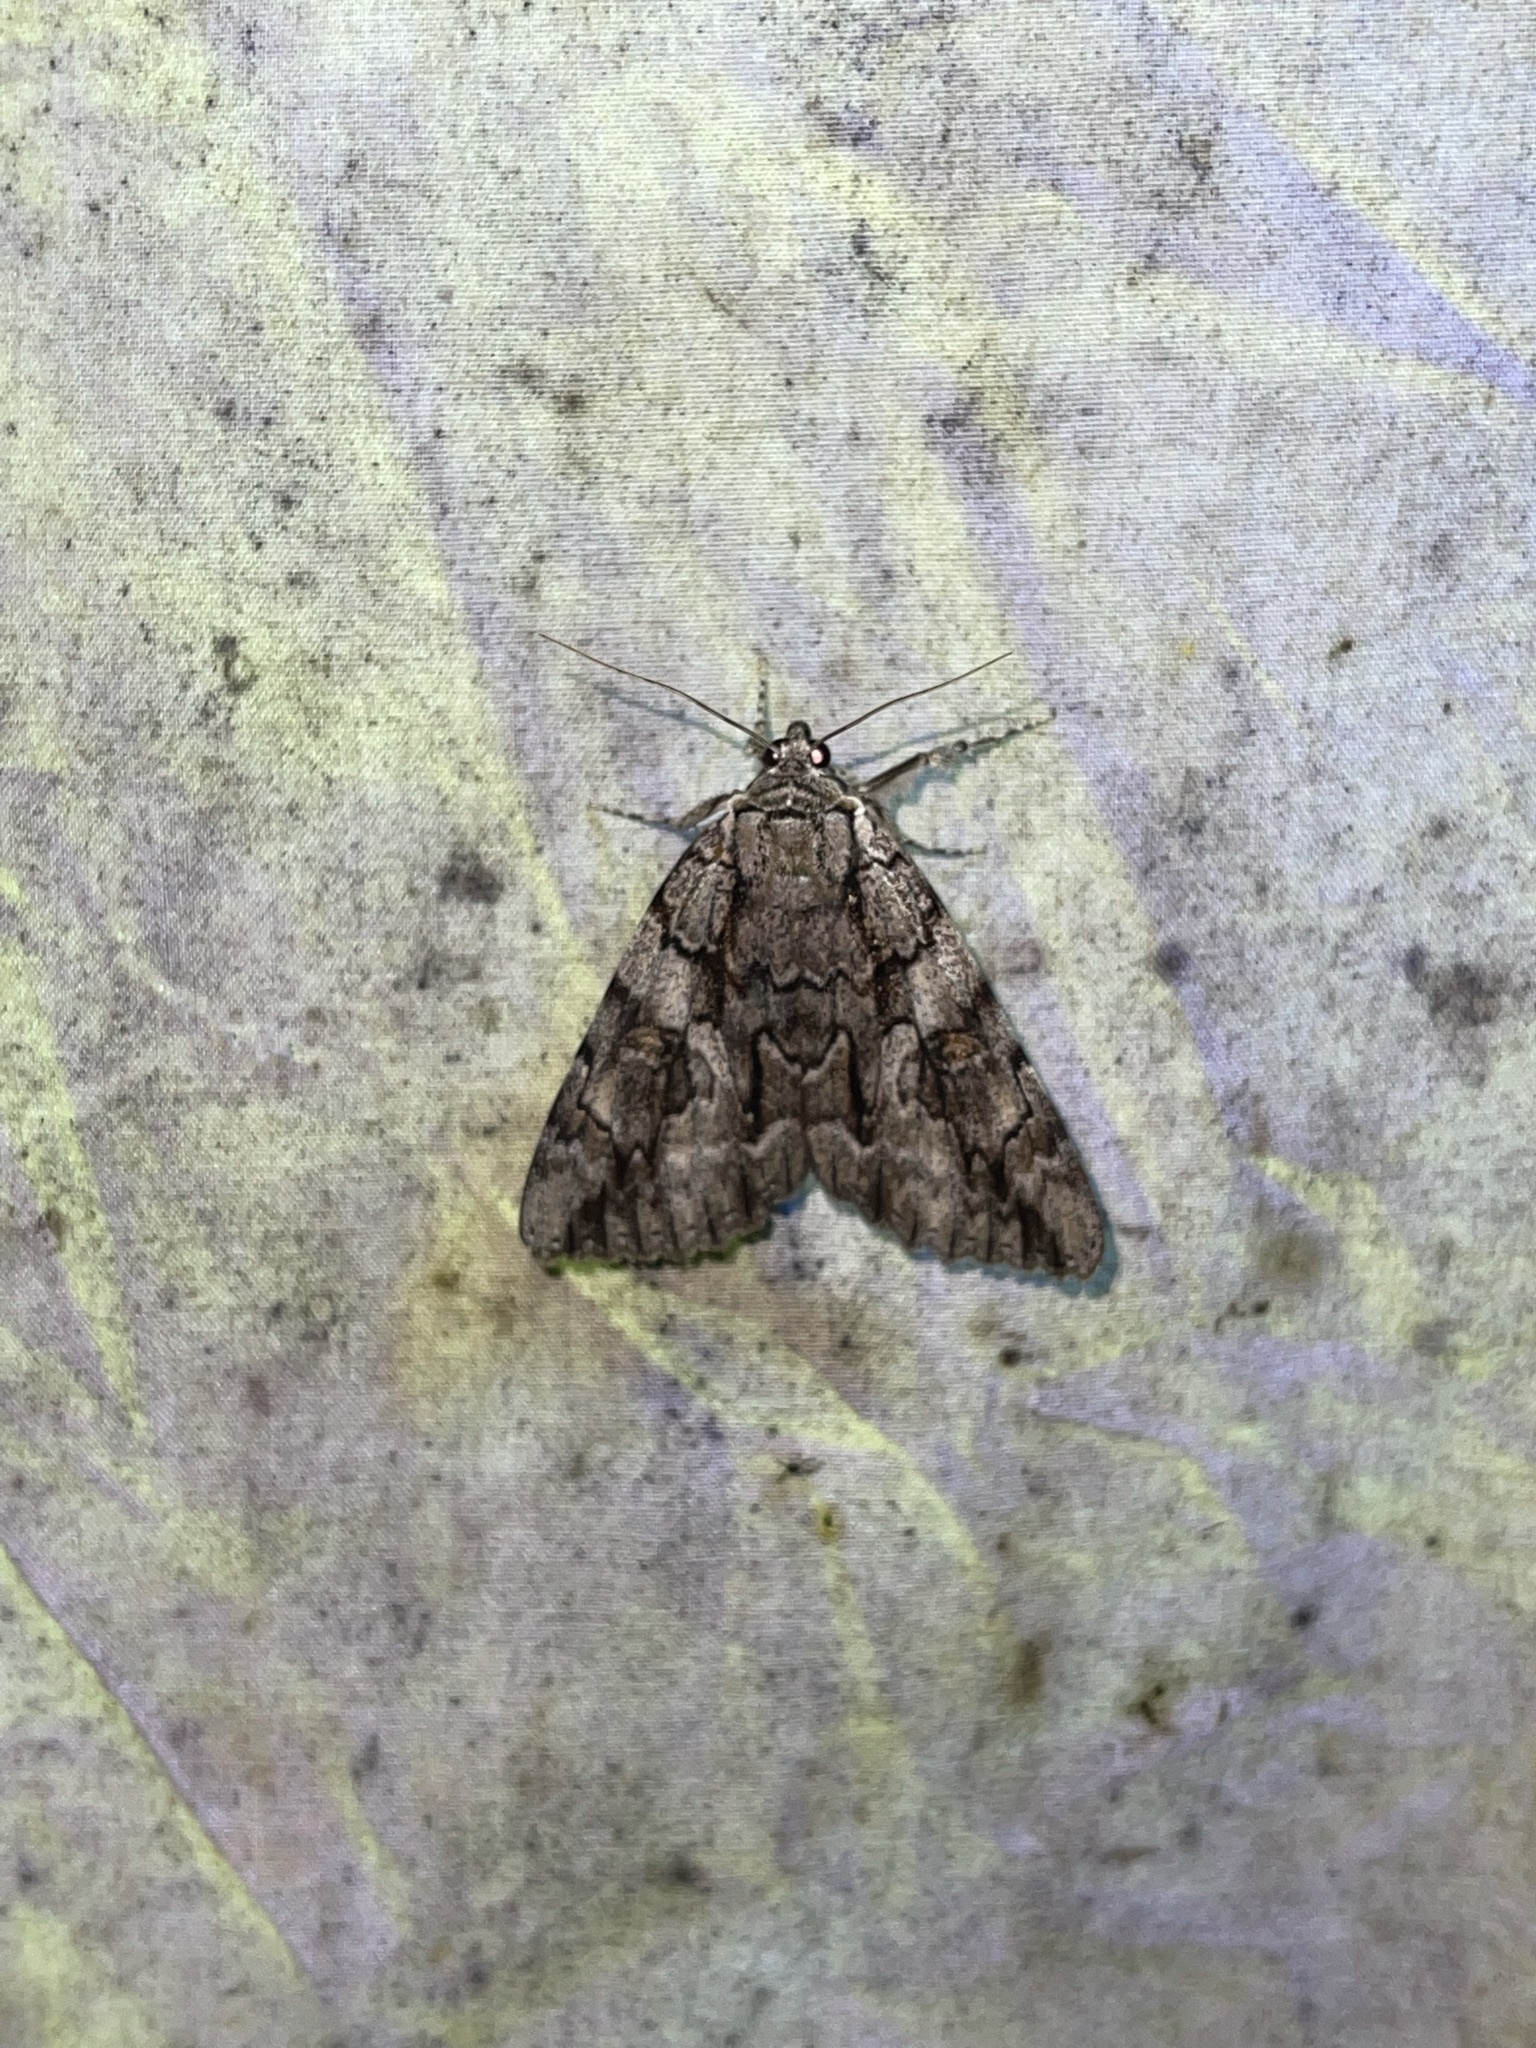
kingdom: Animalia
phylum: Arthropoda
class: Insecta
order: Lepidoptera
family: Erebidae
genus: Catocala
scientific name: Catocala retecta
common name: Yellow-gray underwing
